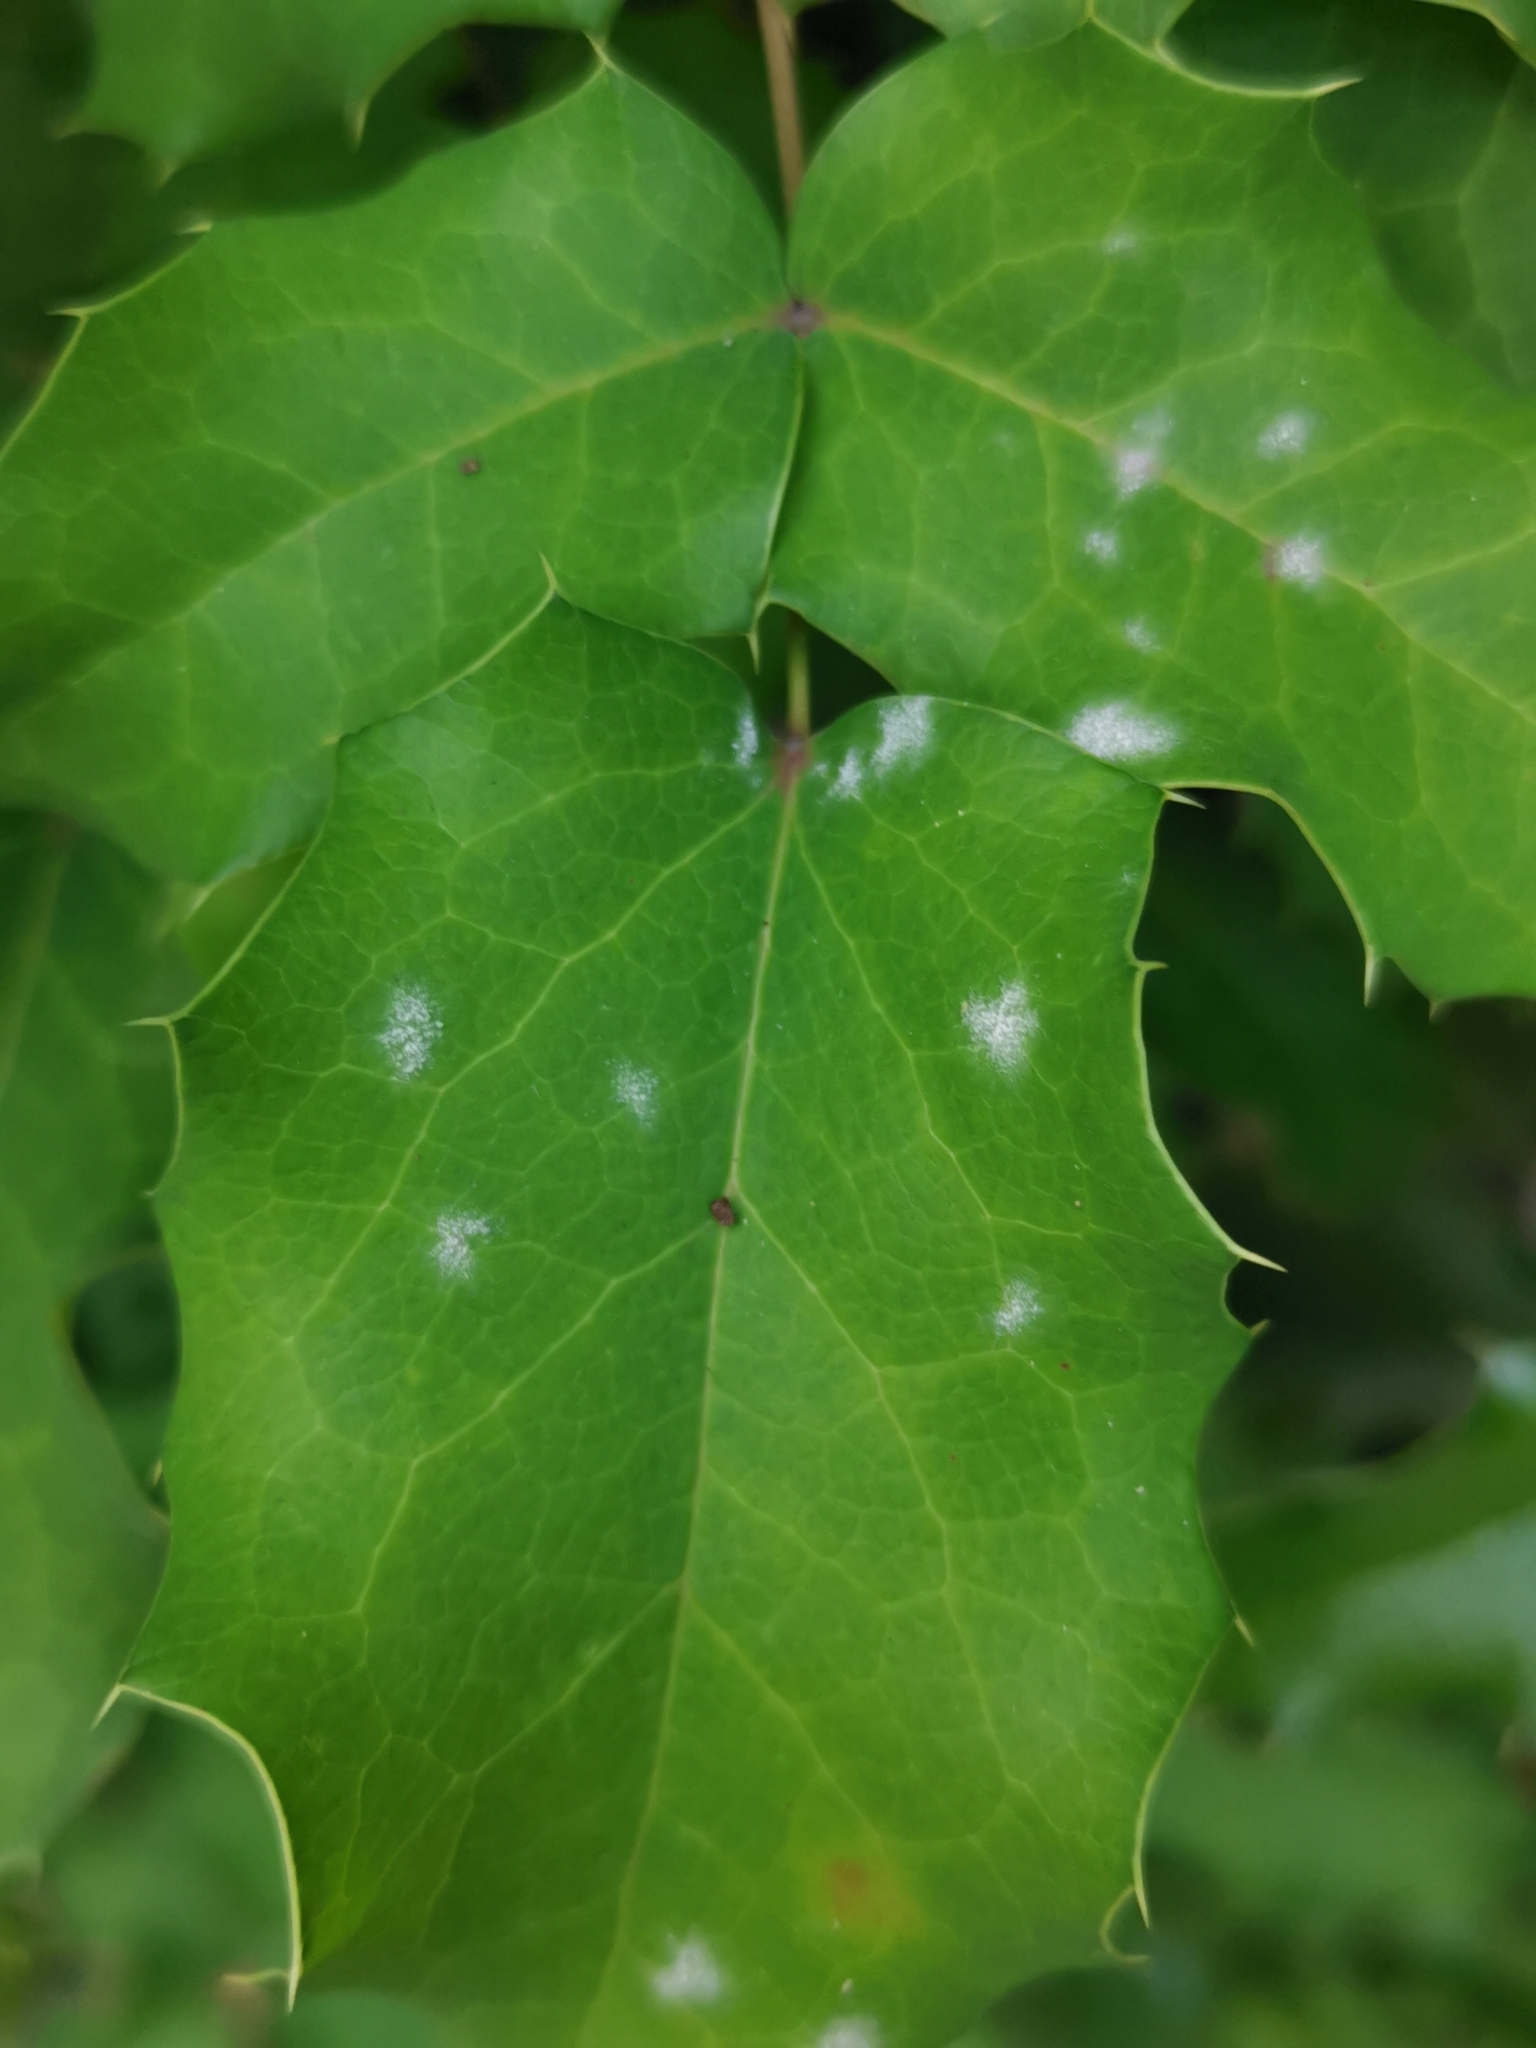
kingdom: Fungi
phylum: Ascomycota
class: Leotiomycetes
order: Helotiales
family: Erysiphaceae
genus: Erysiphe
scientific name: Erysiphe berberidis
